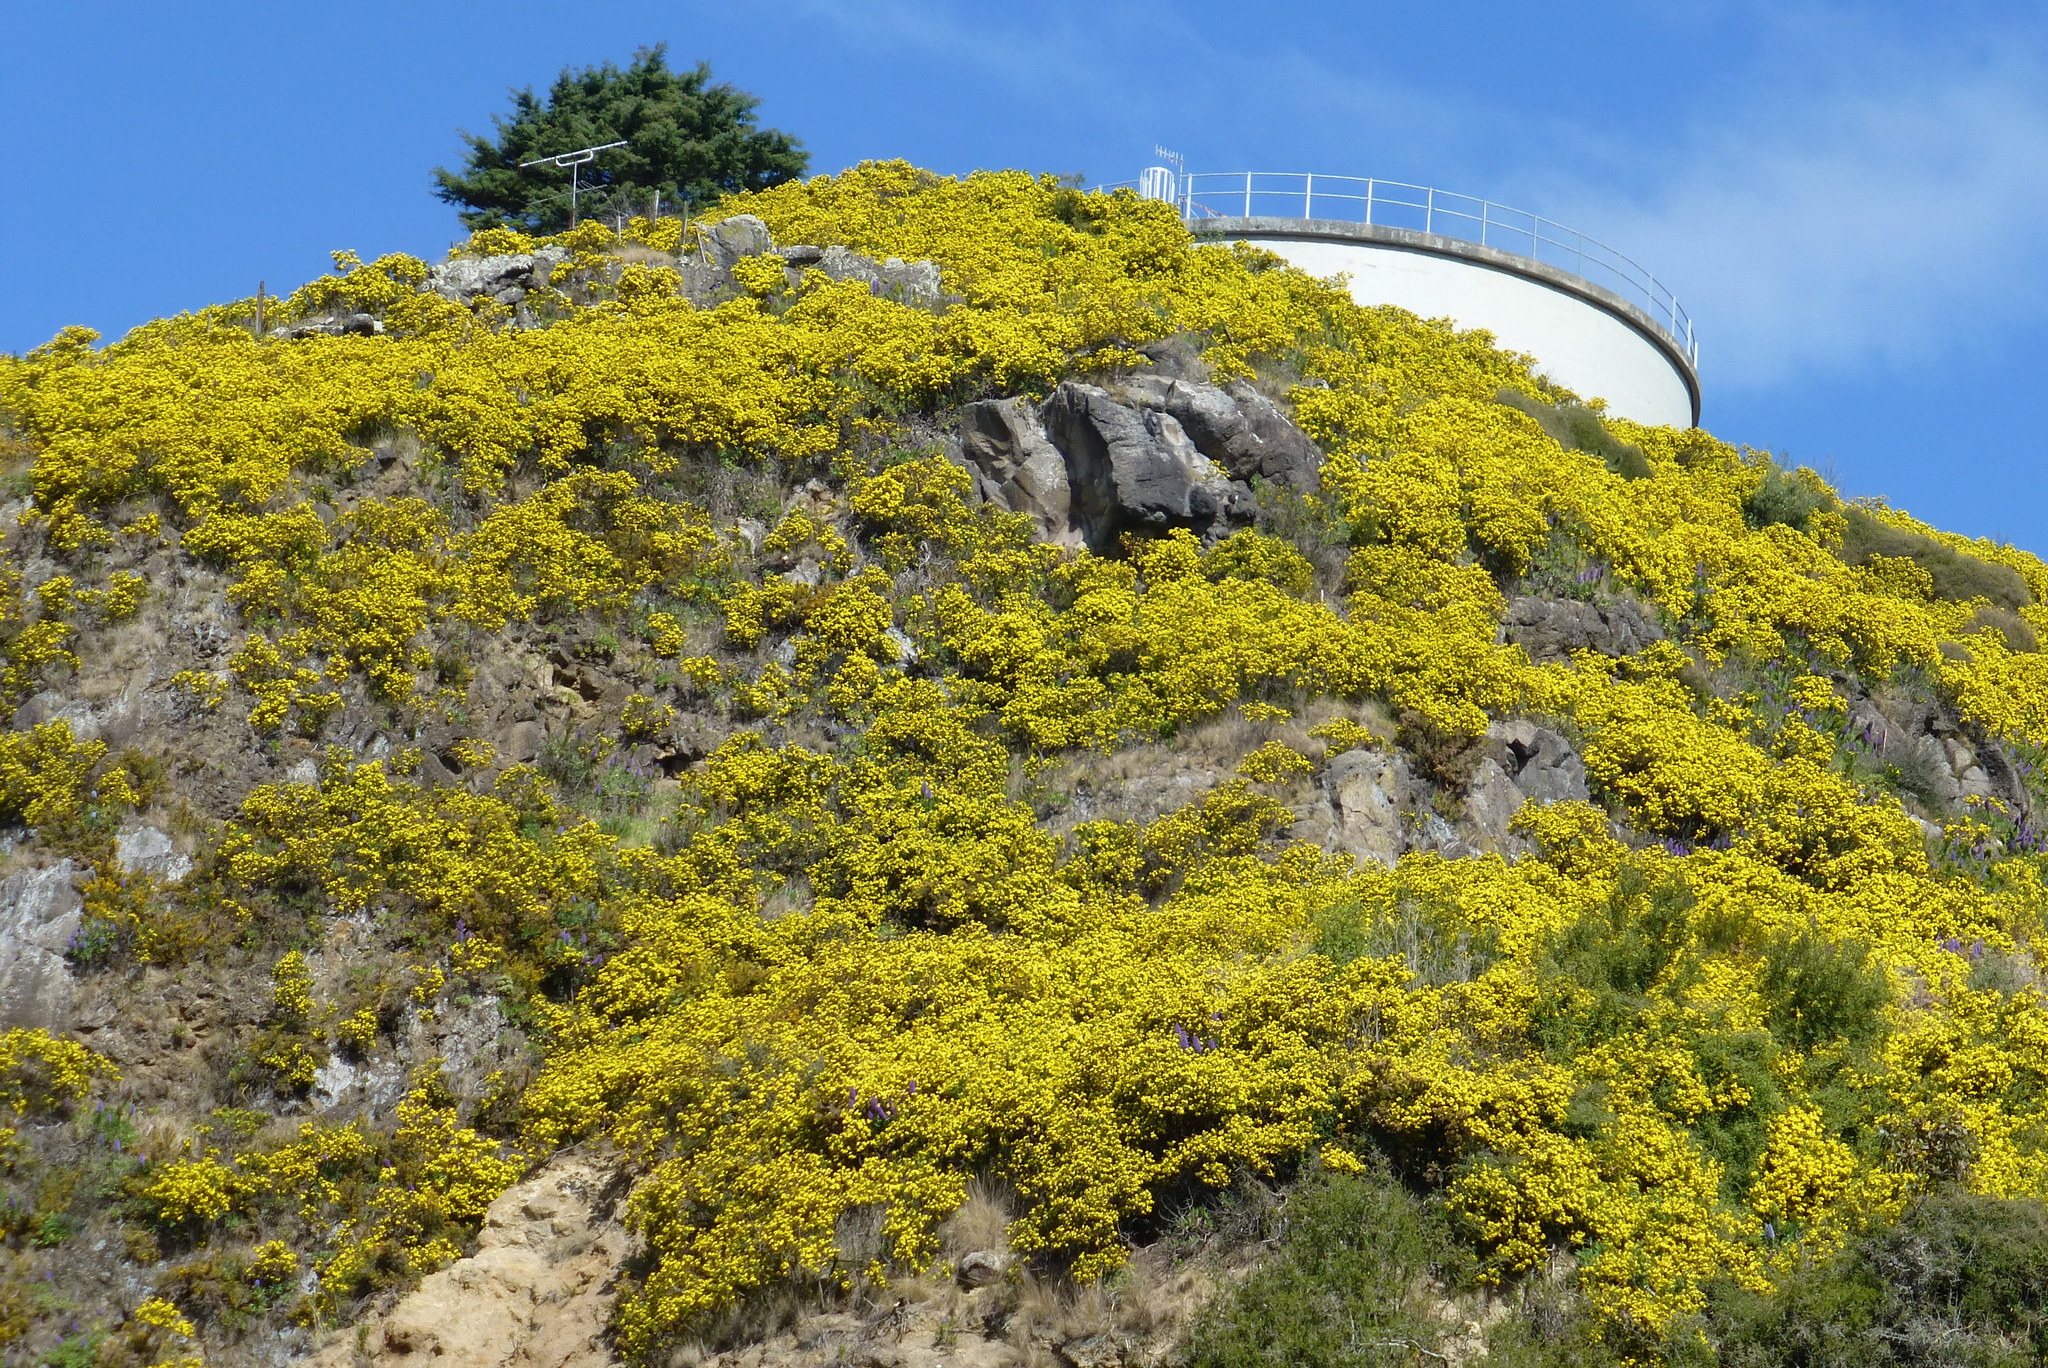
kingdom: Plantae
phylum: Tracheophyta
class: Magnoliopsida
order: Asterales
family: Asteraceae
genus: Osteospermum
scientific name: Osteospermum moniliferum
